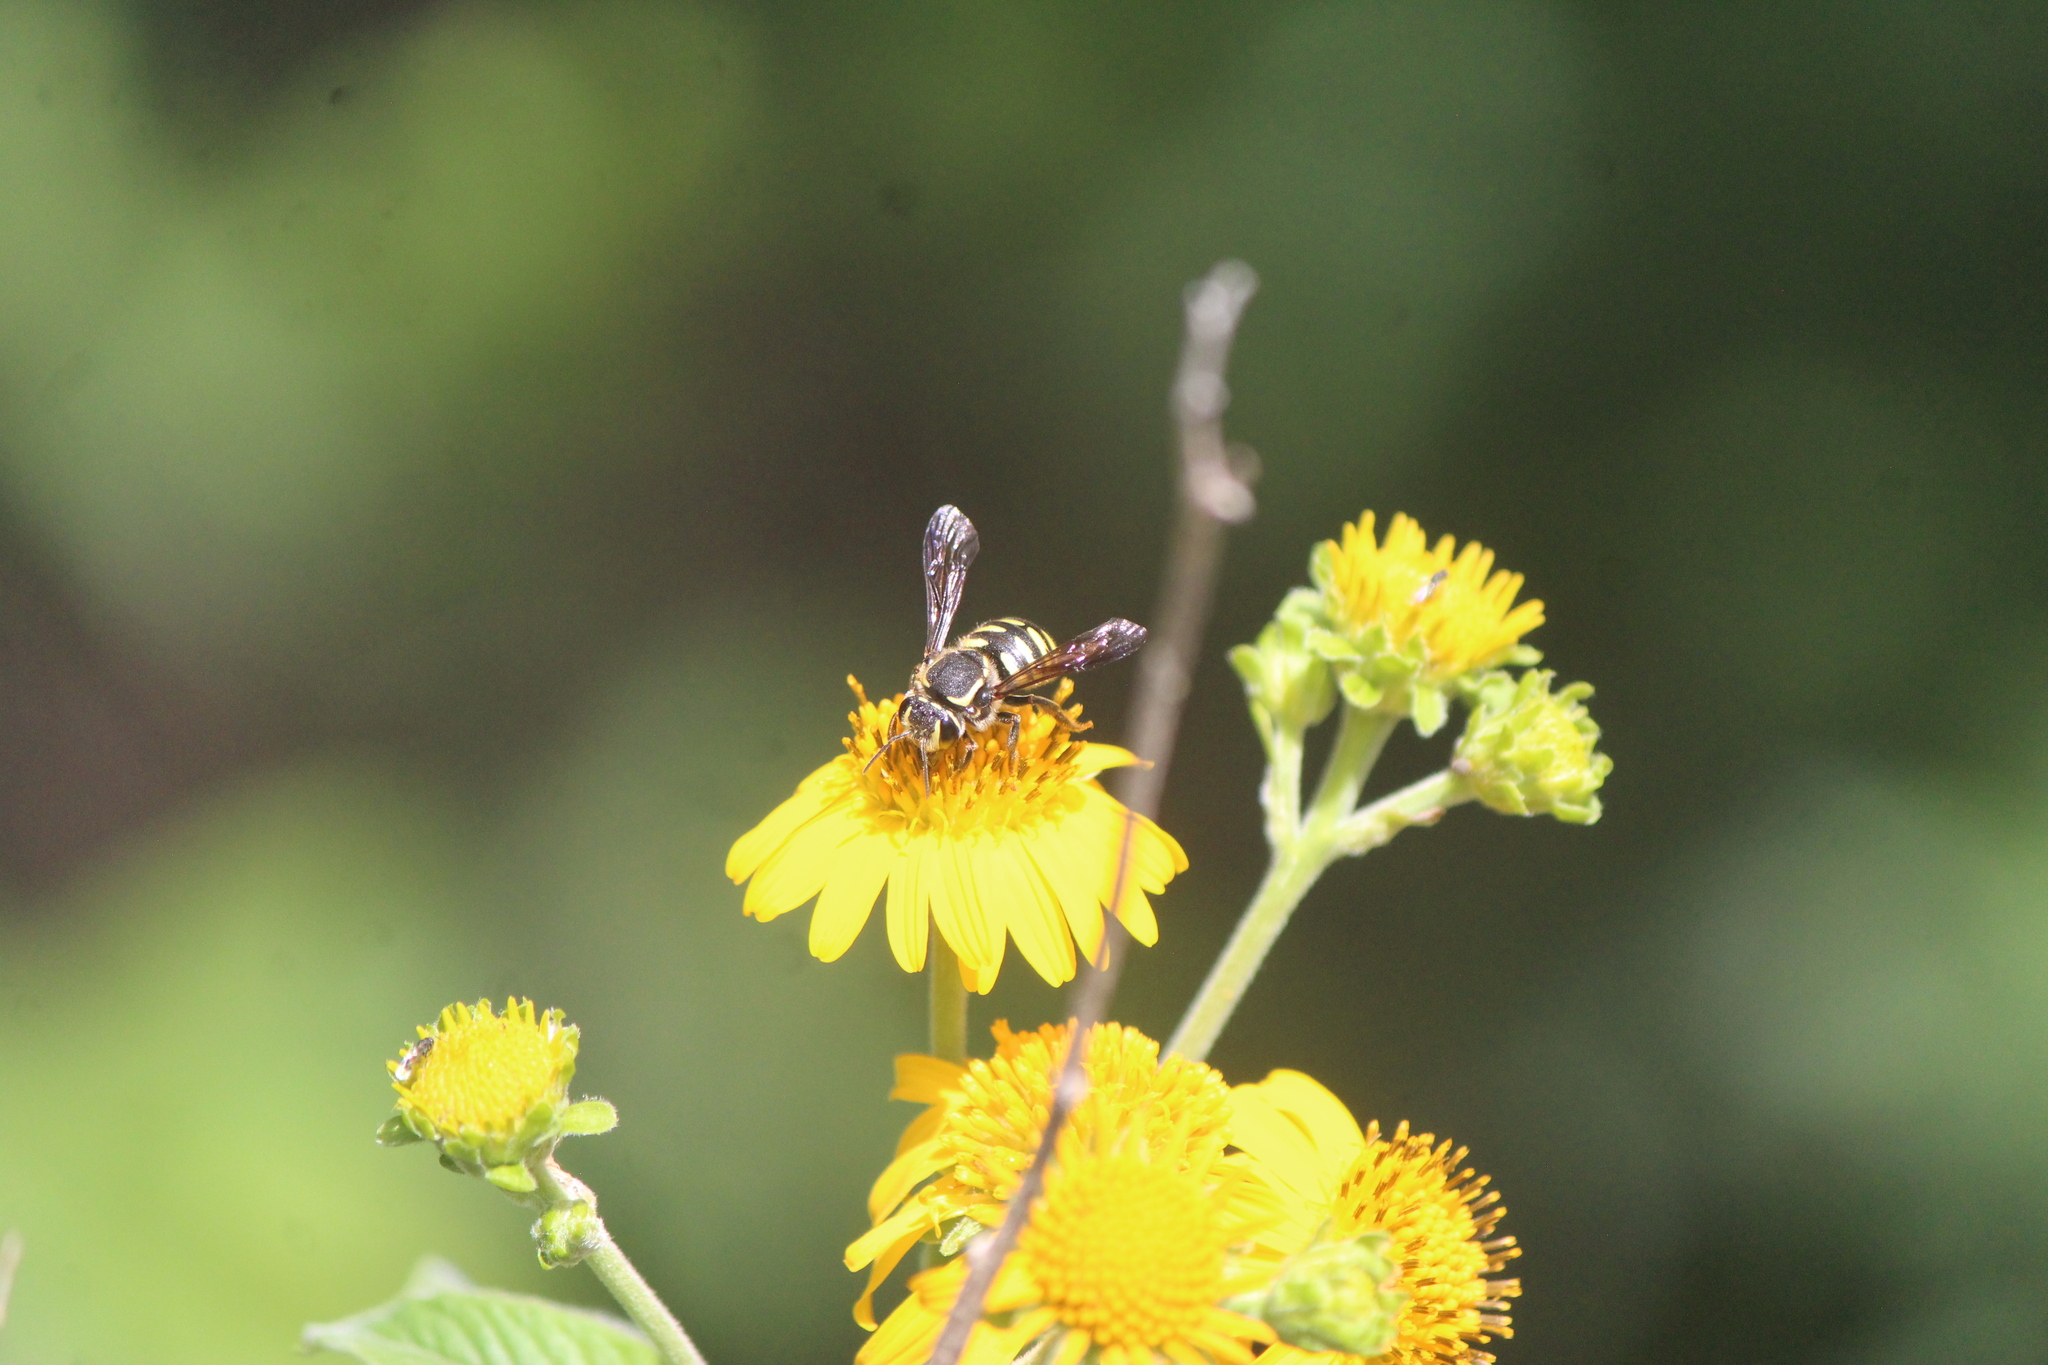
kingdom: Animalia
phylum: Arthropoda
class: Insecta
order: Hymenoptera
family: Megachilidae
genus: Paranthidium
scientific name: Paranthidium gabbii
